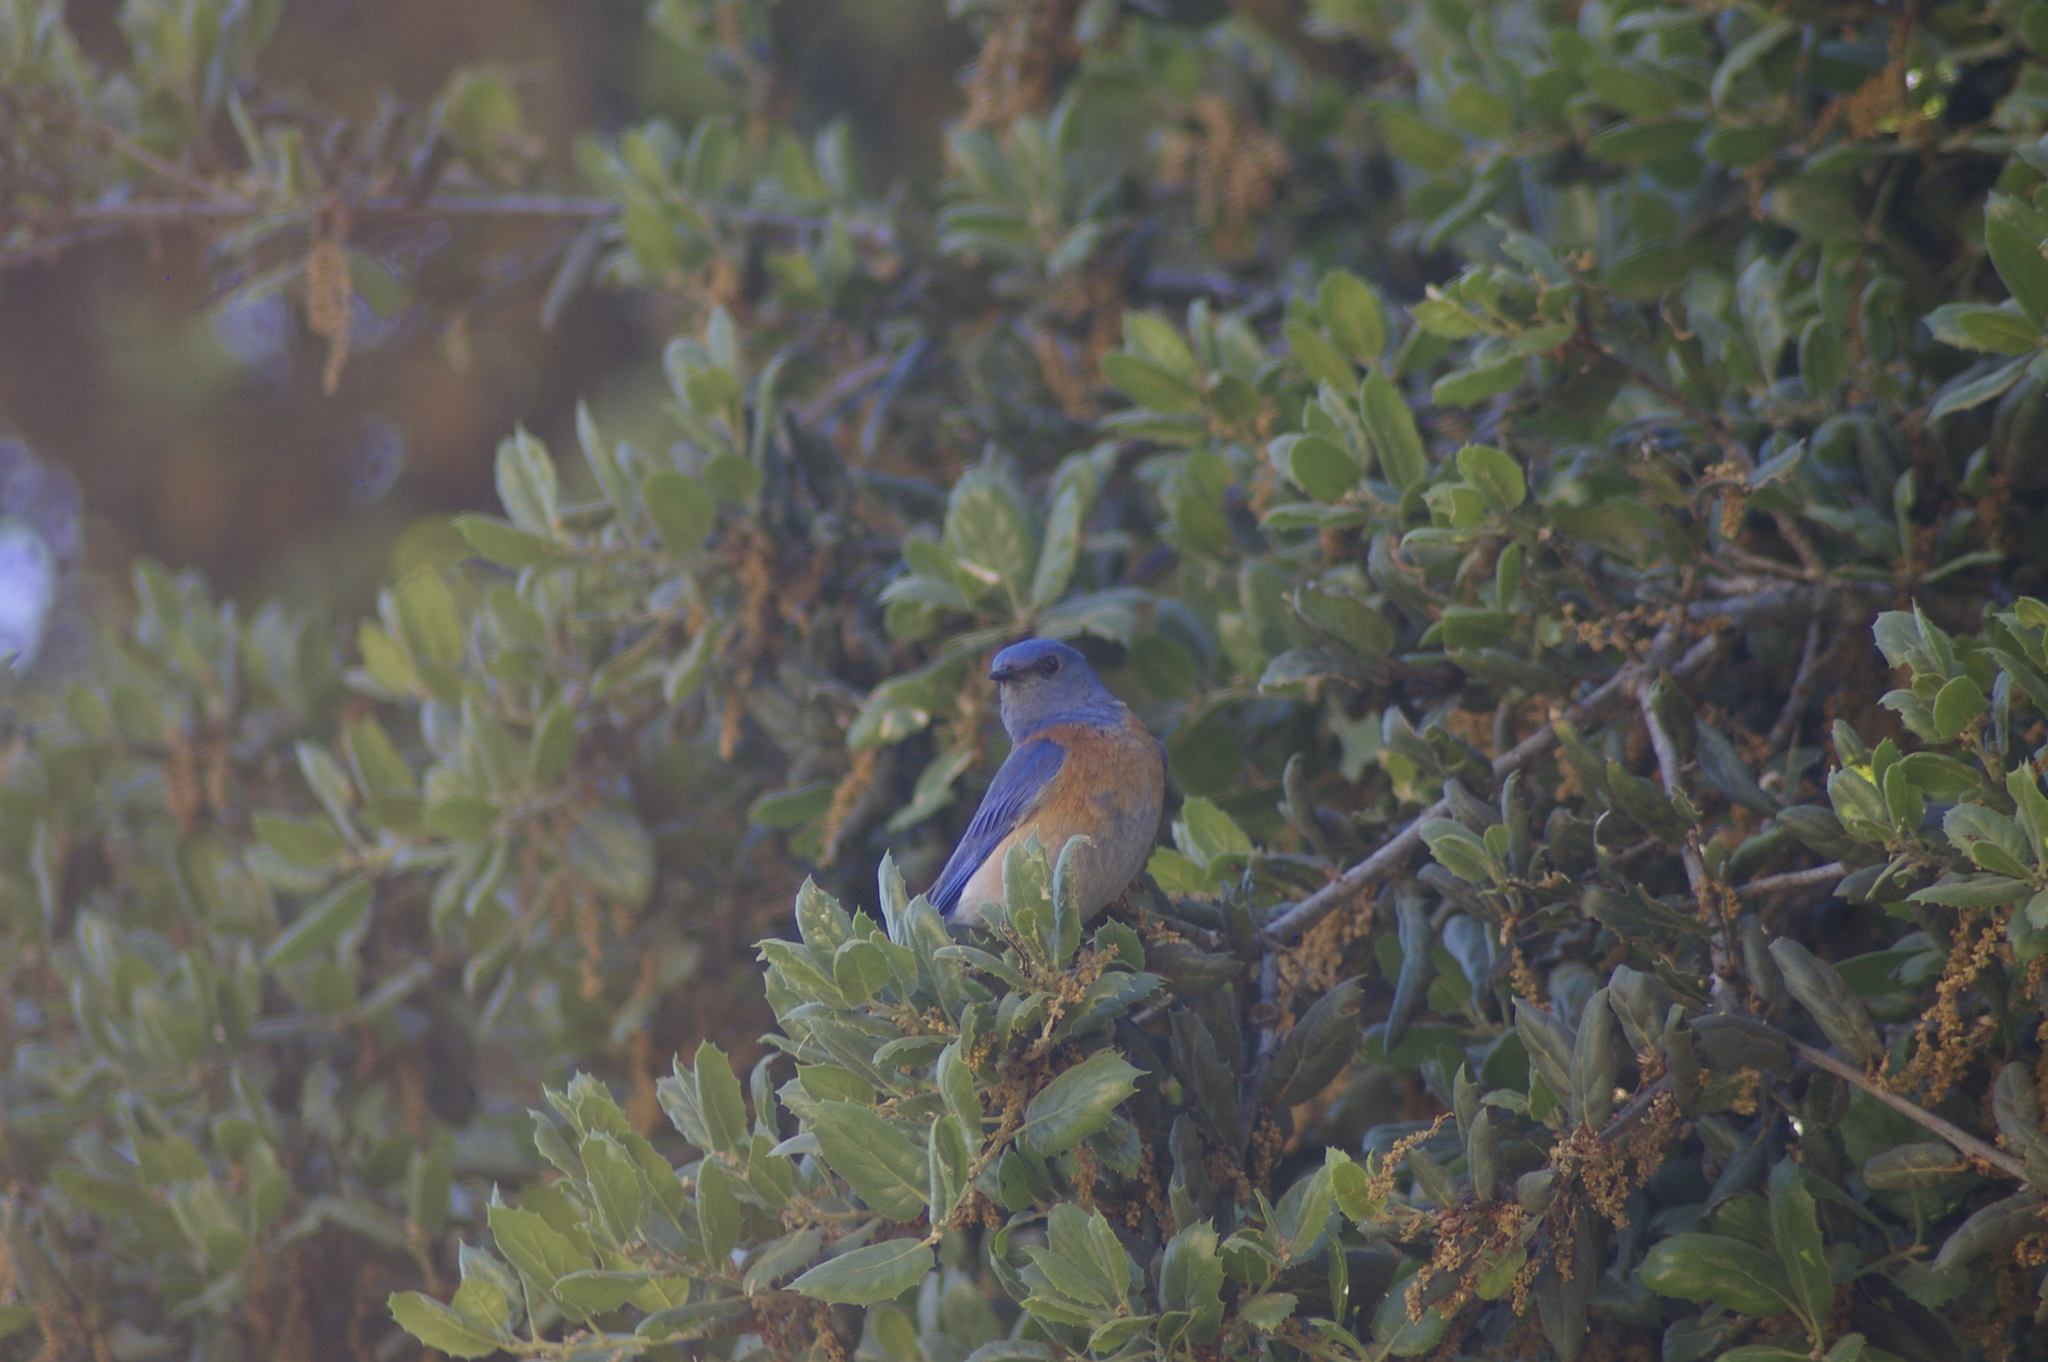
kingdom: Animalia
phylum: Chordata
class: Aves
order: Passeriformes
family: Turdidae
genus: Sialia
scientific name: Sialia mexicana
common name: Western bluebird
